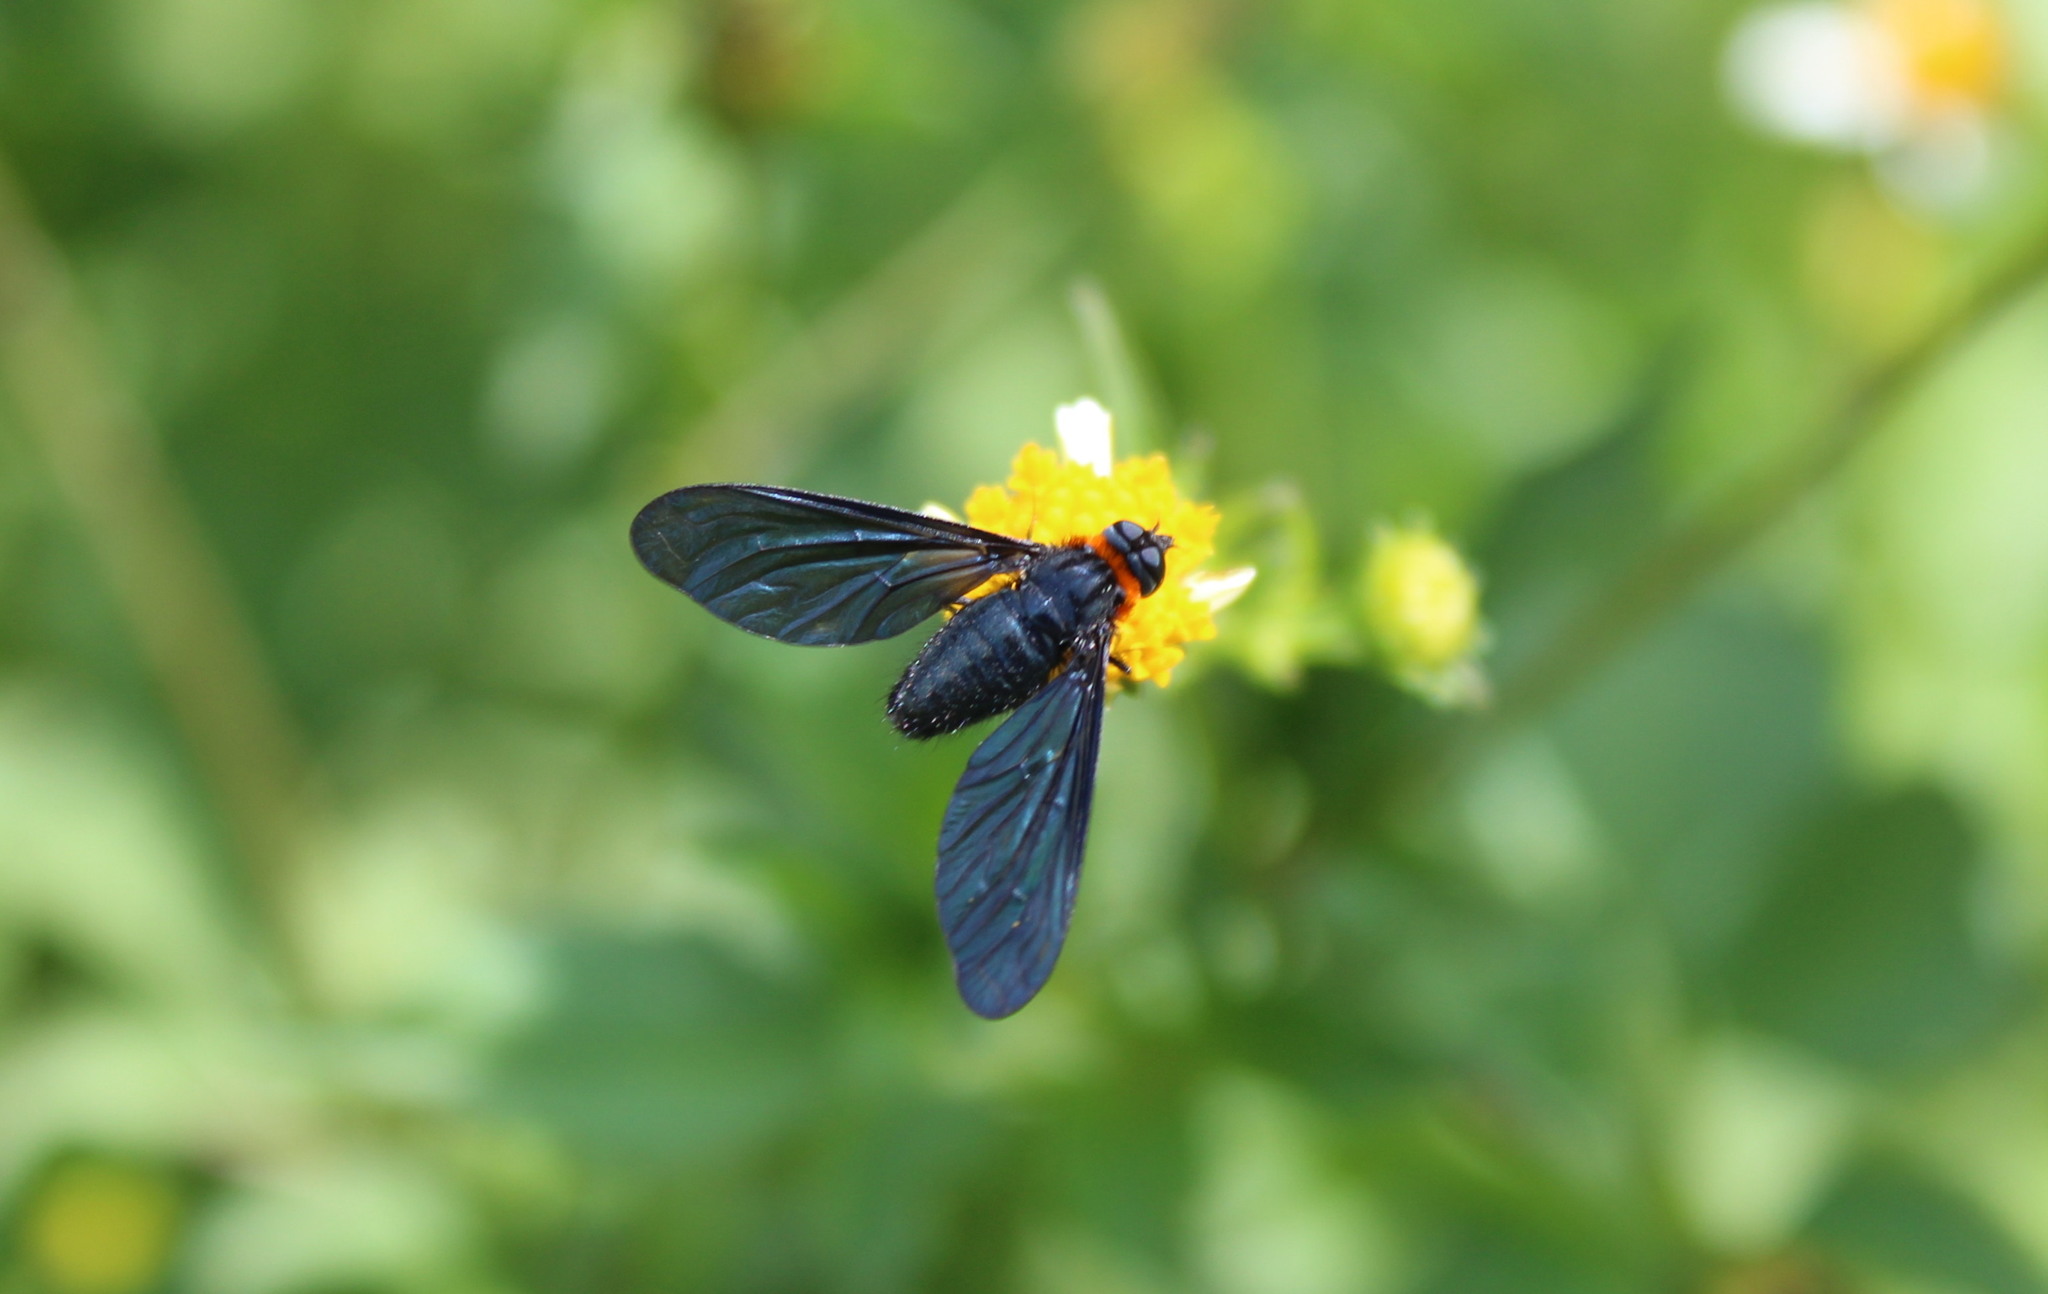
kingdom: Animalia
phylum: Arthropoda
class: Insecta
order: Diptera
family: Bombyliidae
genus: Cyananthrax
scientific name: Cyananthrax cyanoptera
